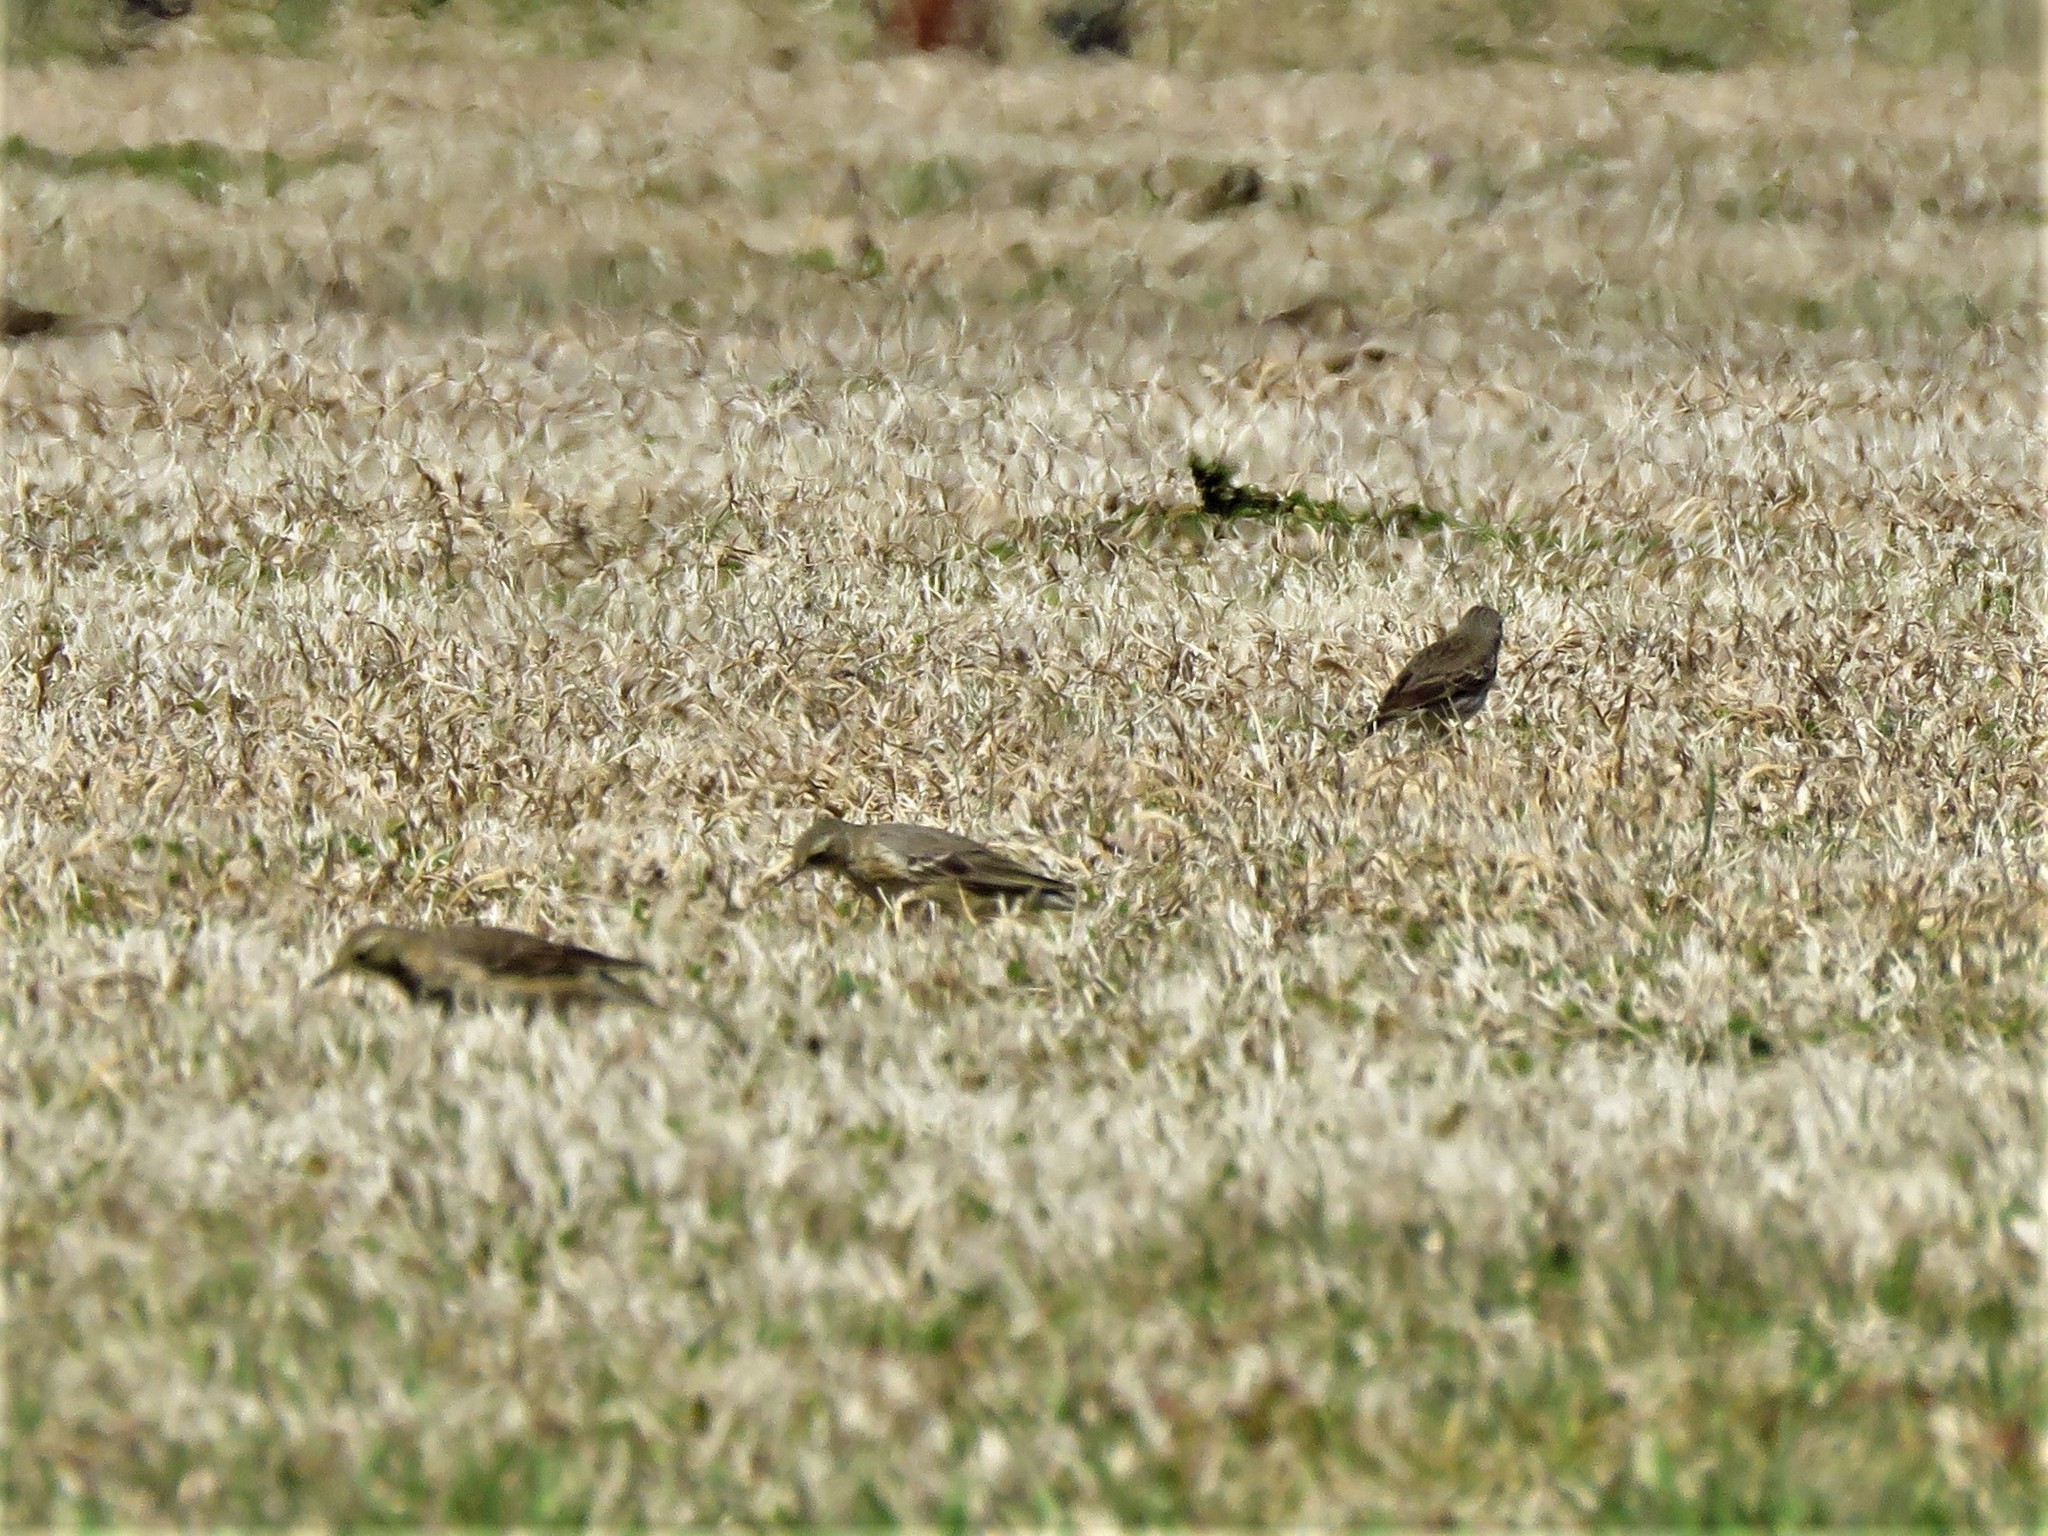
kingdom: Animalia
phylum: Chordata
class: Aves
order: Passeriformes
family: Motacillidae
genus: Anthus
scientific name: Anthus rubescens
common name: Buff-bellied pipit
